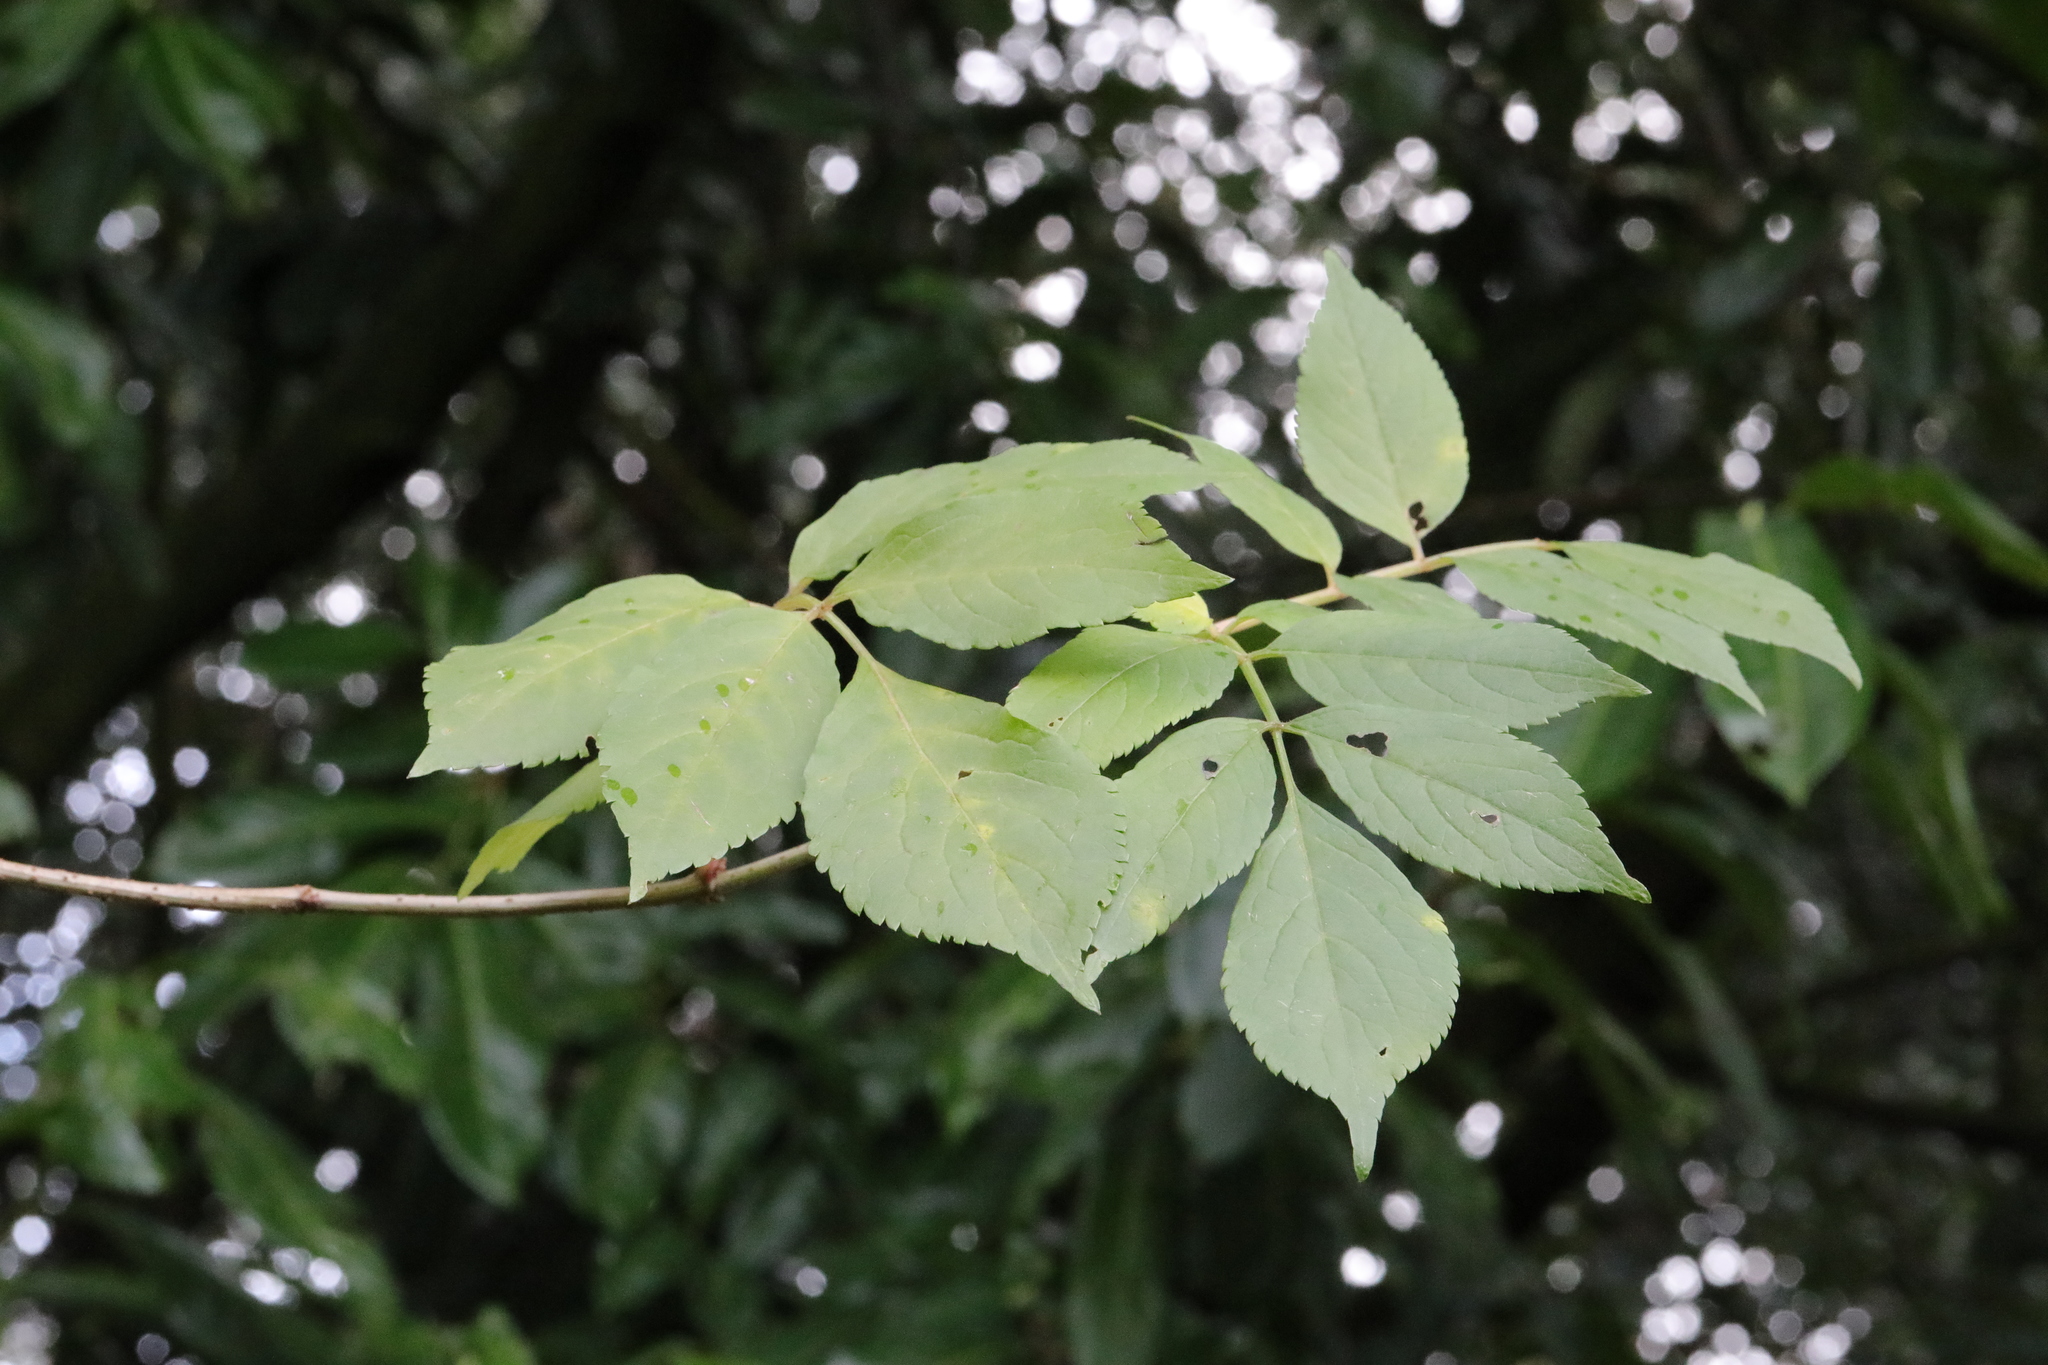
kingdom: Plantae
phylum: Tracheophyta
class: Magnoliopsida
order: Dipsacales
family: Viburnaceae
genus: Sambucus
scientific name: Sambucus nigra
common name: Elder
